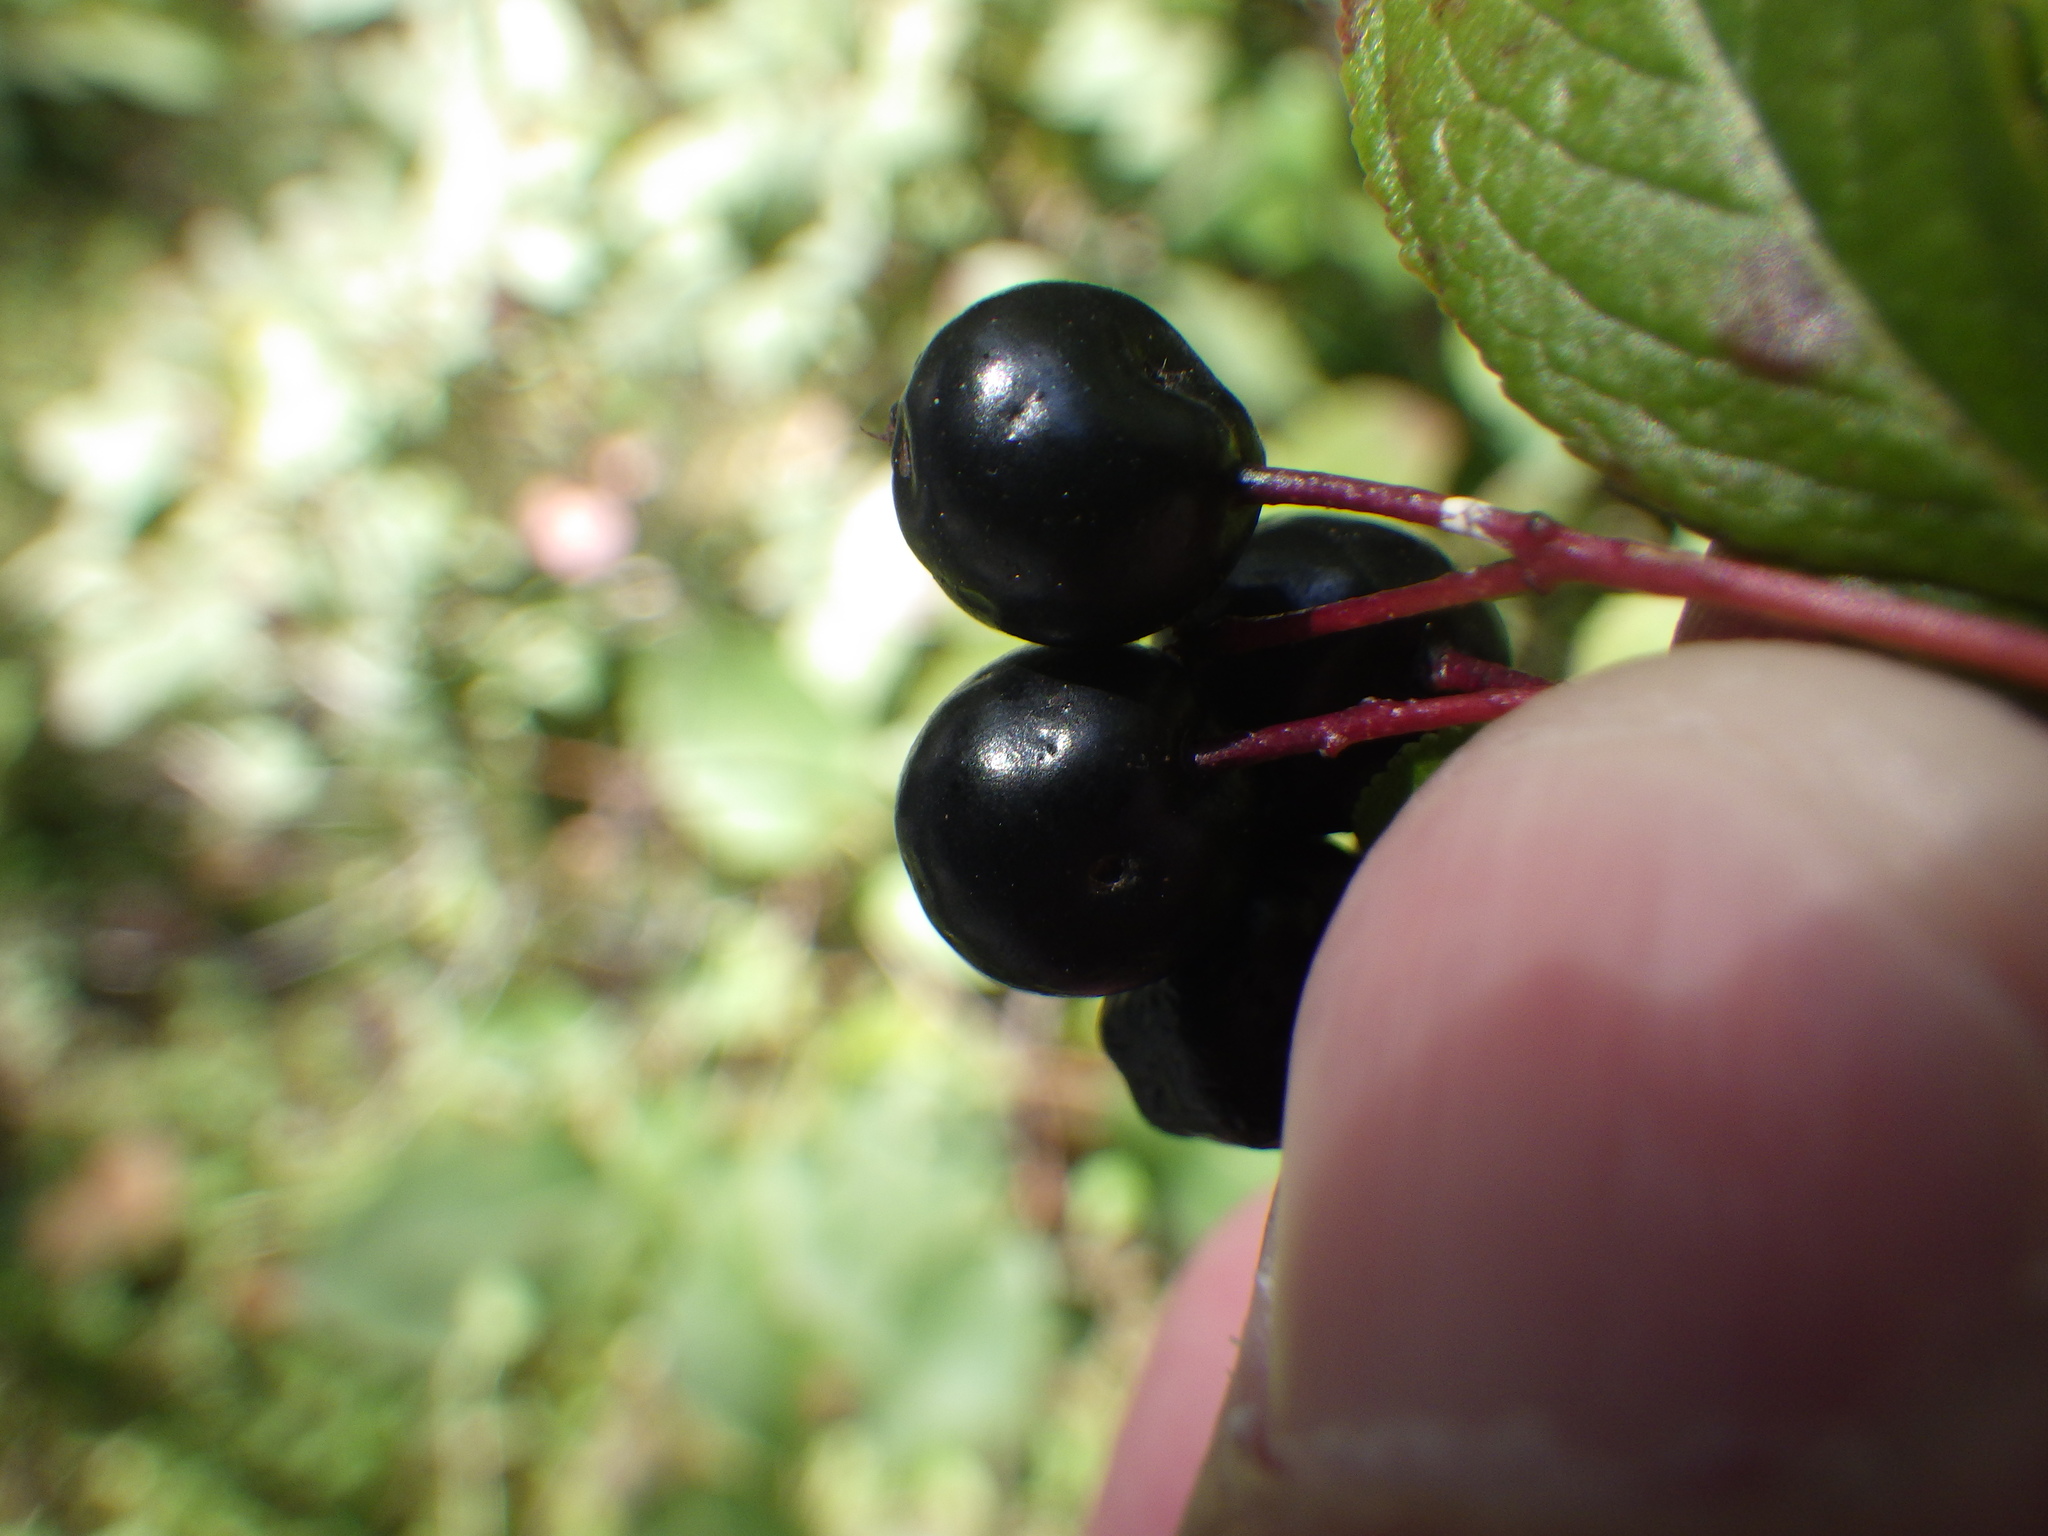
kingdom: Plantae
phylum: Tracheophyta
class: Magnoliopsida
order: Rosales
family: Rosaceae
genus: Aronia
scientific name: Aronia melanocarpa
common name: Black chokeberry
